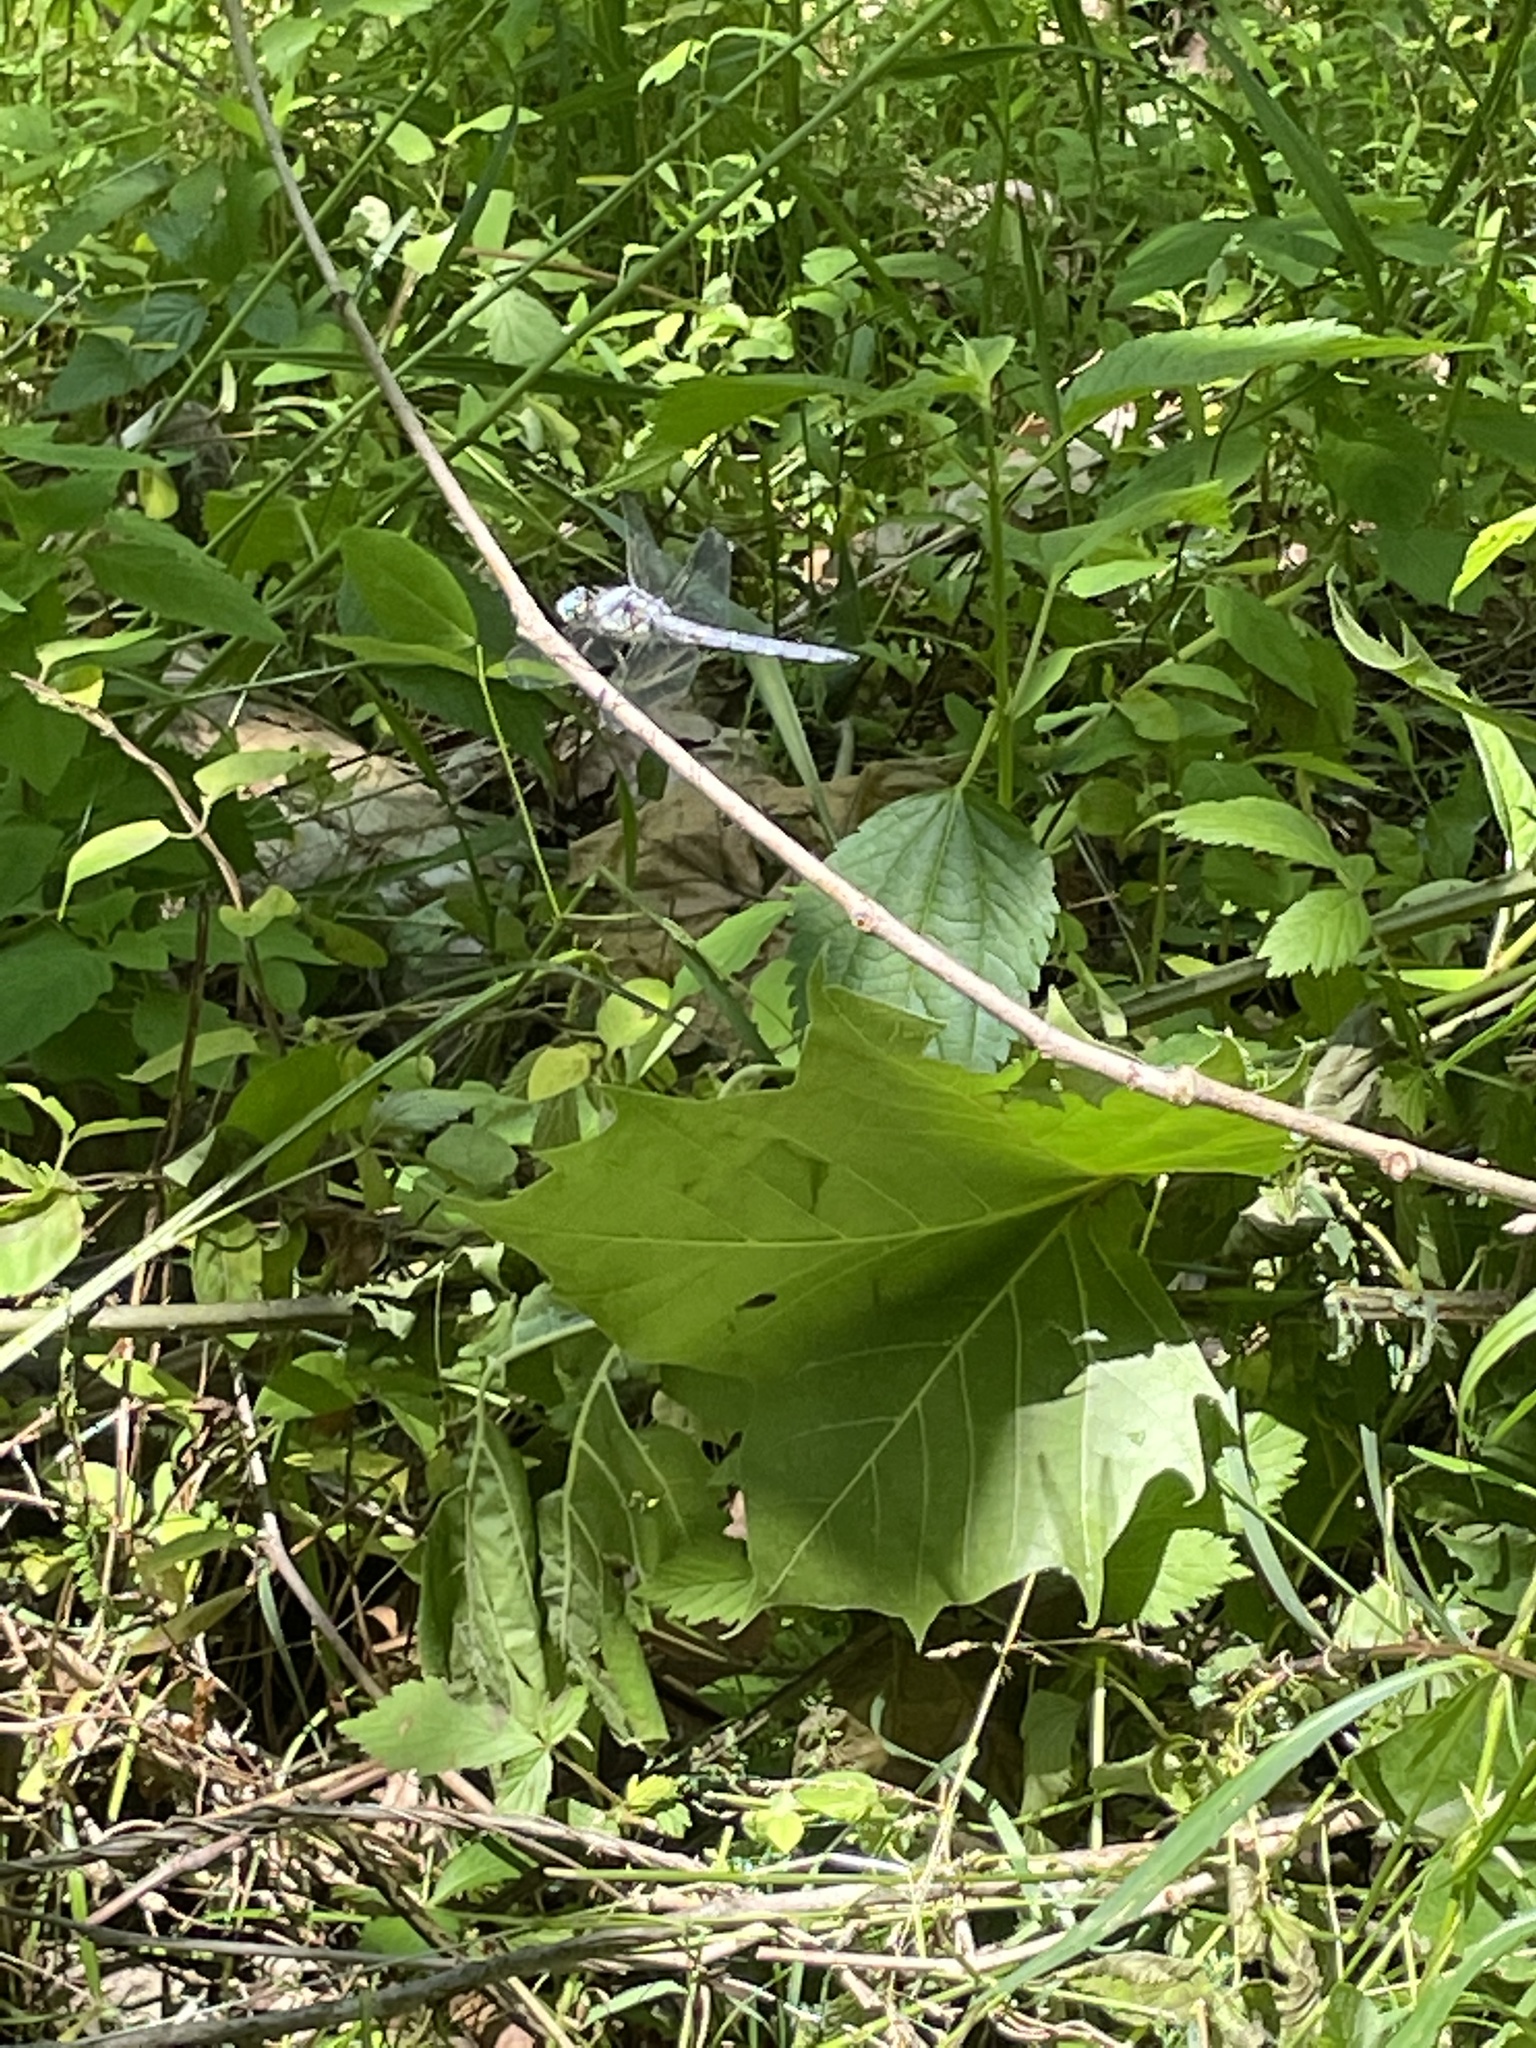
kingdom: Animalia
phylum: Arthropoda
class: Insecta
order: Odonata
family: Libellulidae
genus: Libellula
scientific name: Libellula vibrans
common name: Great blue skimmer
